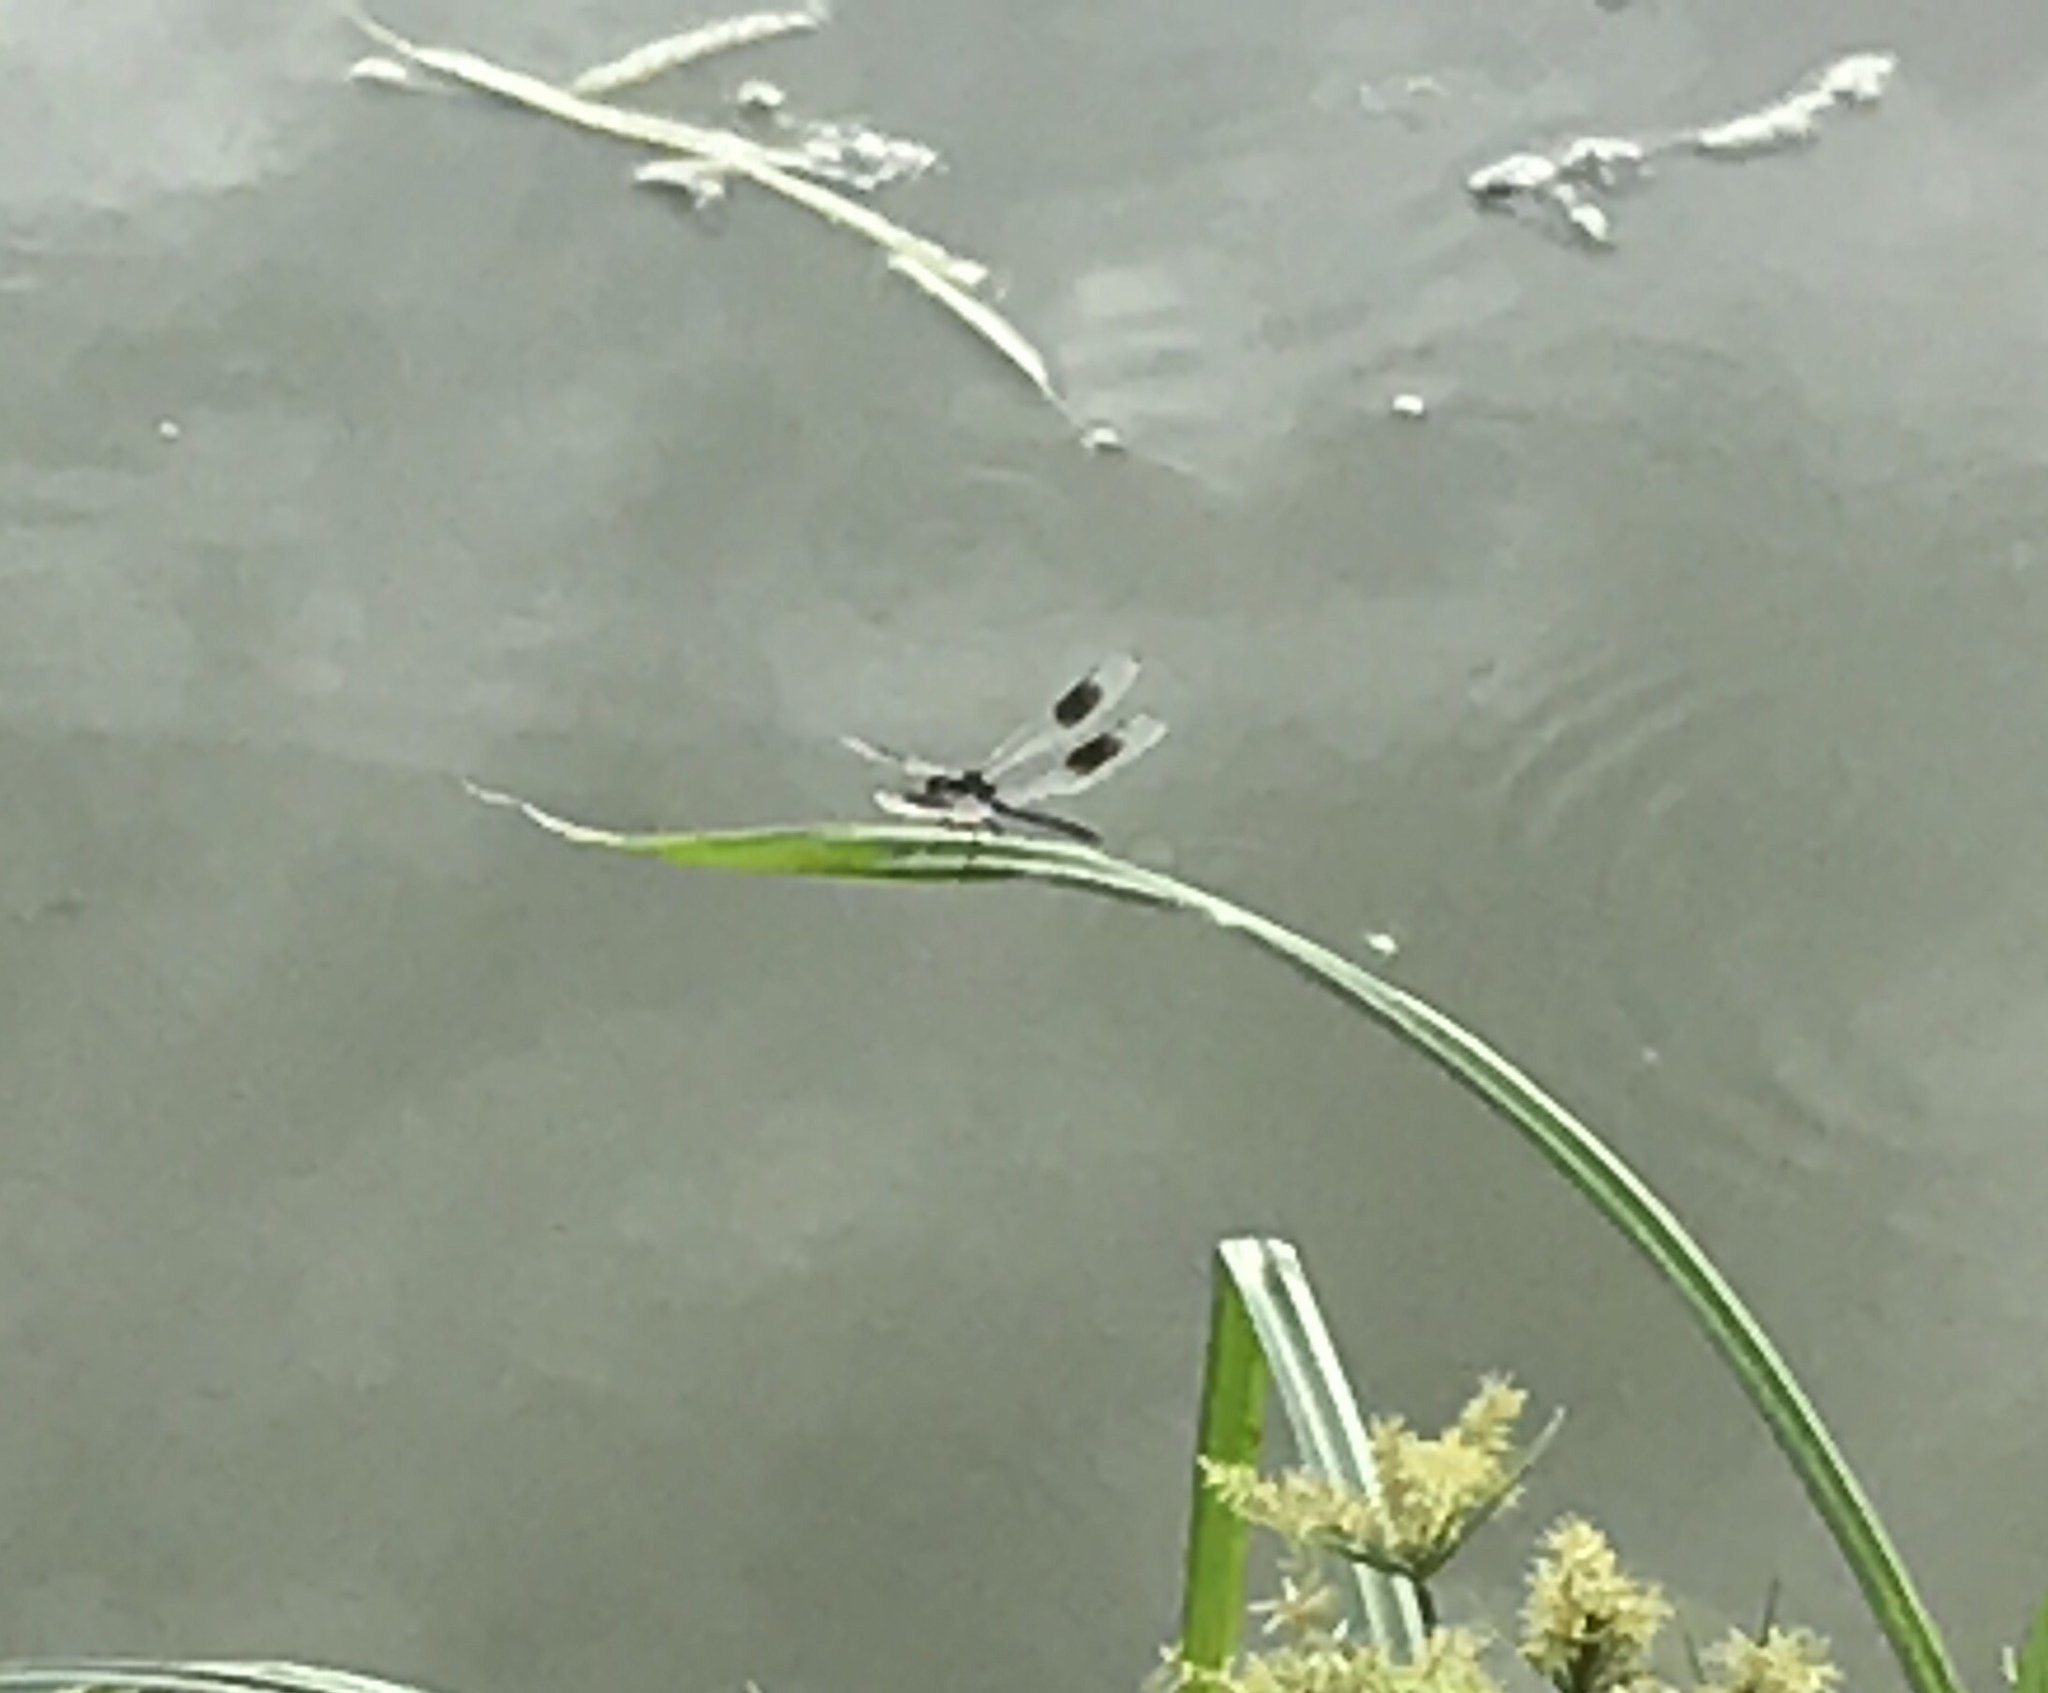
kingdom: Animalia
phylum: Arthropoda
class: Insecta
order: Odonata
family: Libellulidae
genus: Brachymesia
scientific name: Brachymesia gravida
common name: Four-spotted pennant
